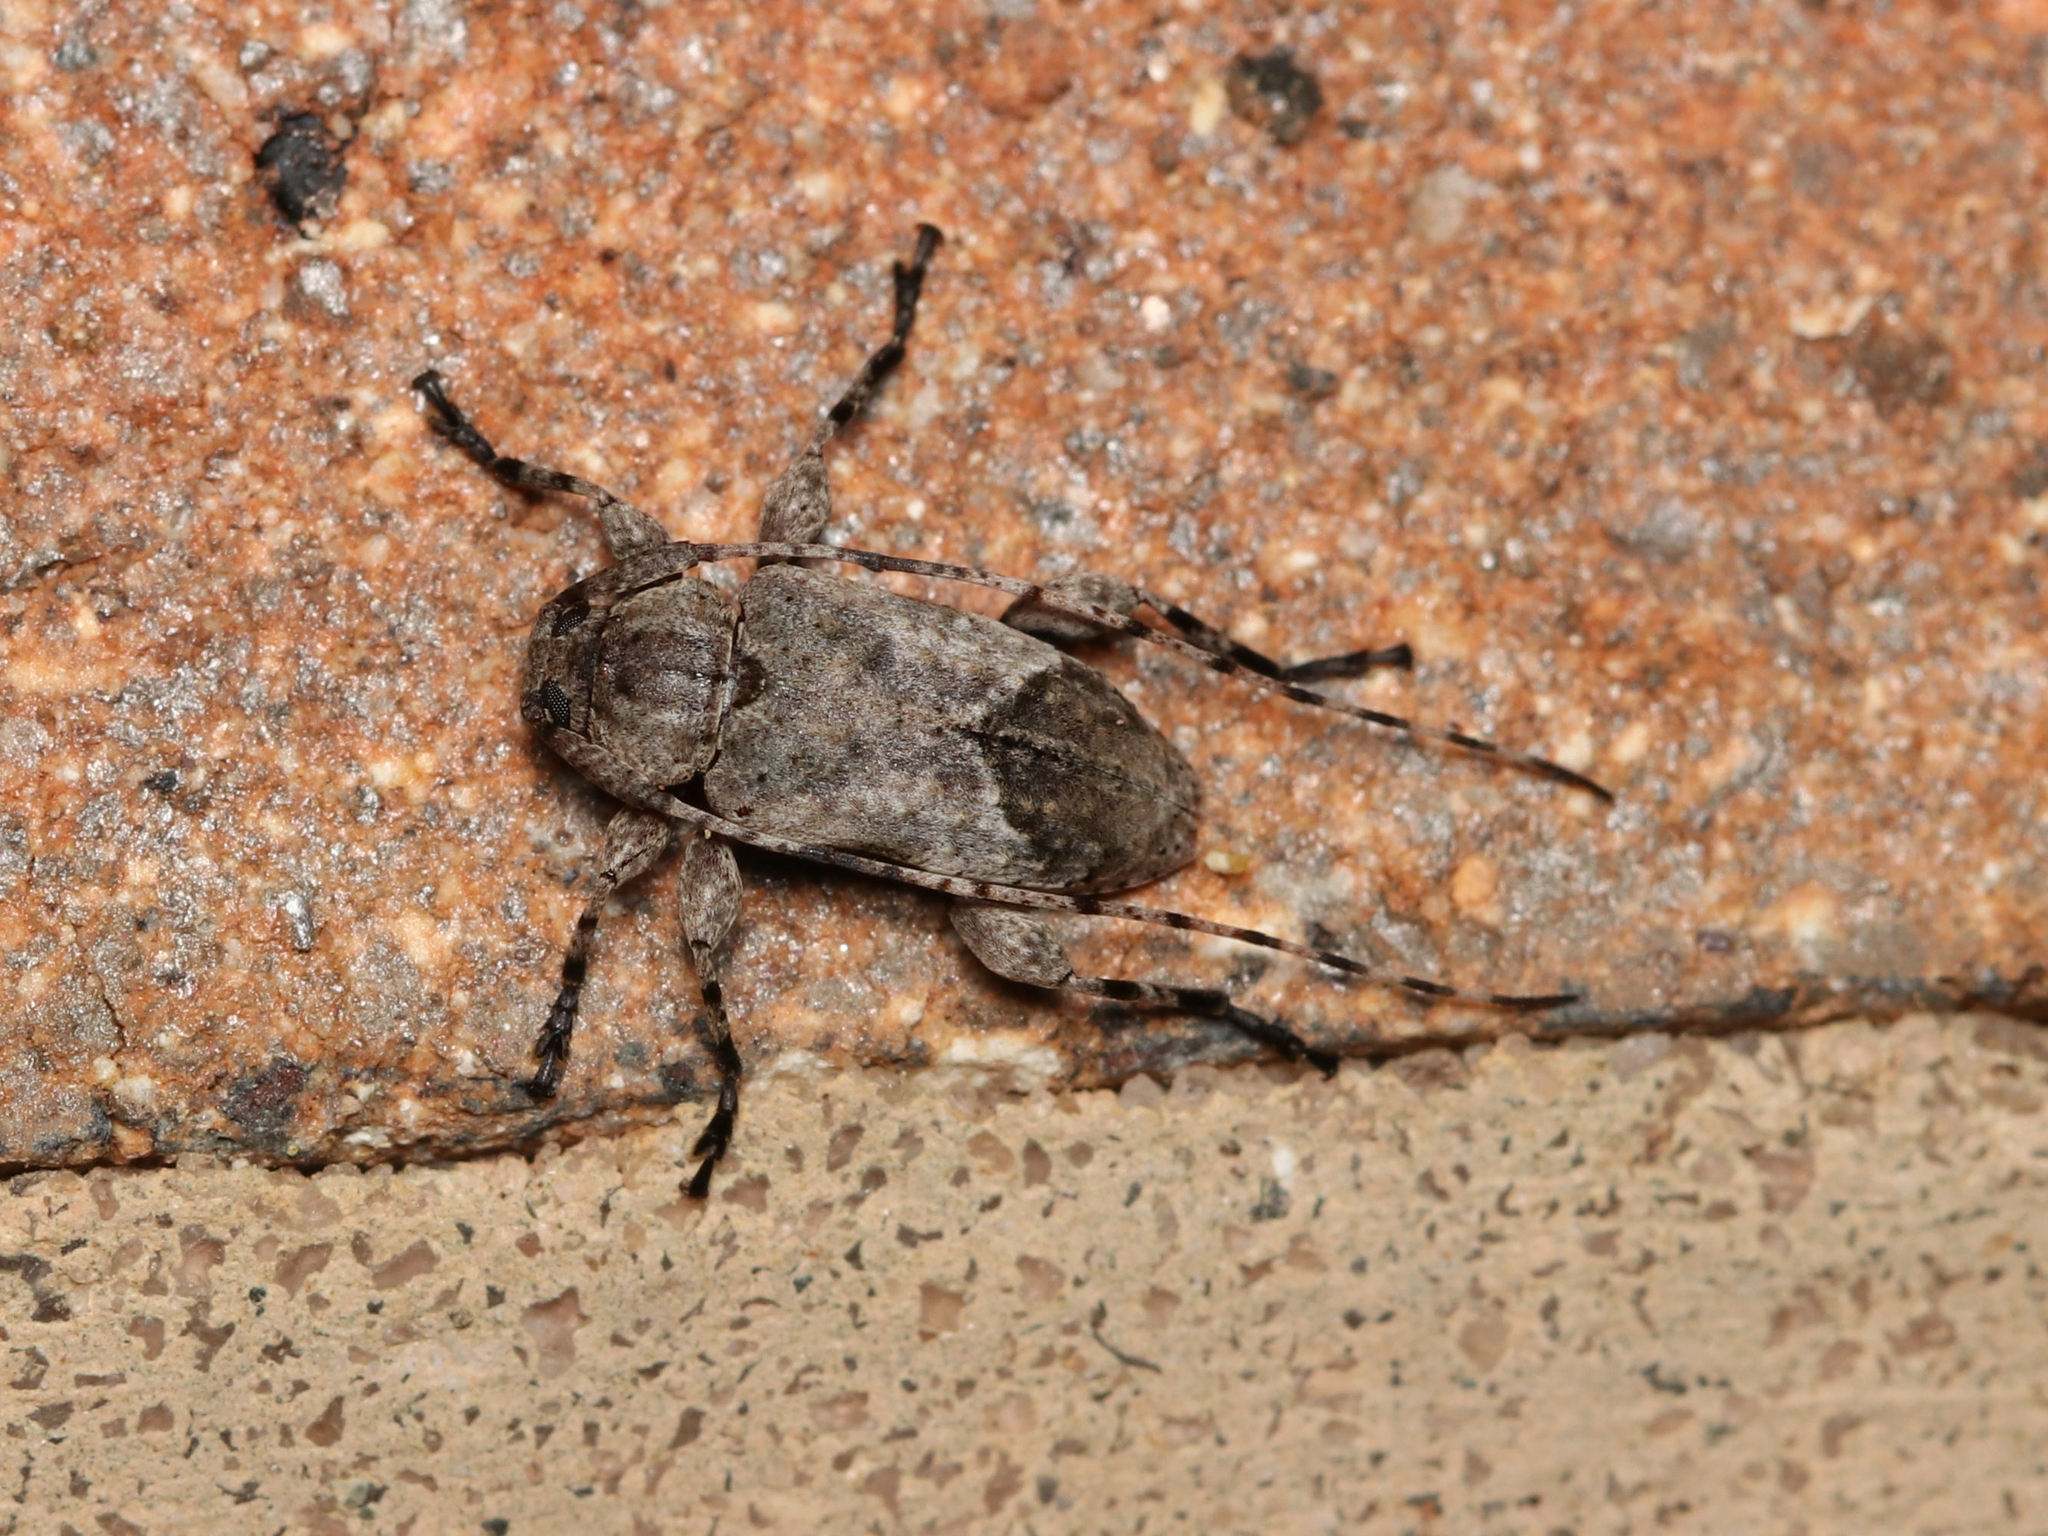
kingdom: Animalia
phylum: Arthropoda
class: Insecta
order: Coleoptera
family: Cerambycidae
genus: Sternidius
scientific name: Sternidius alpha
